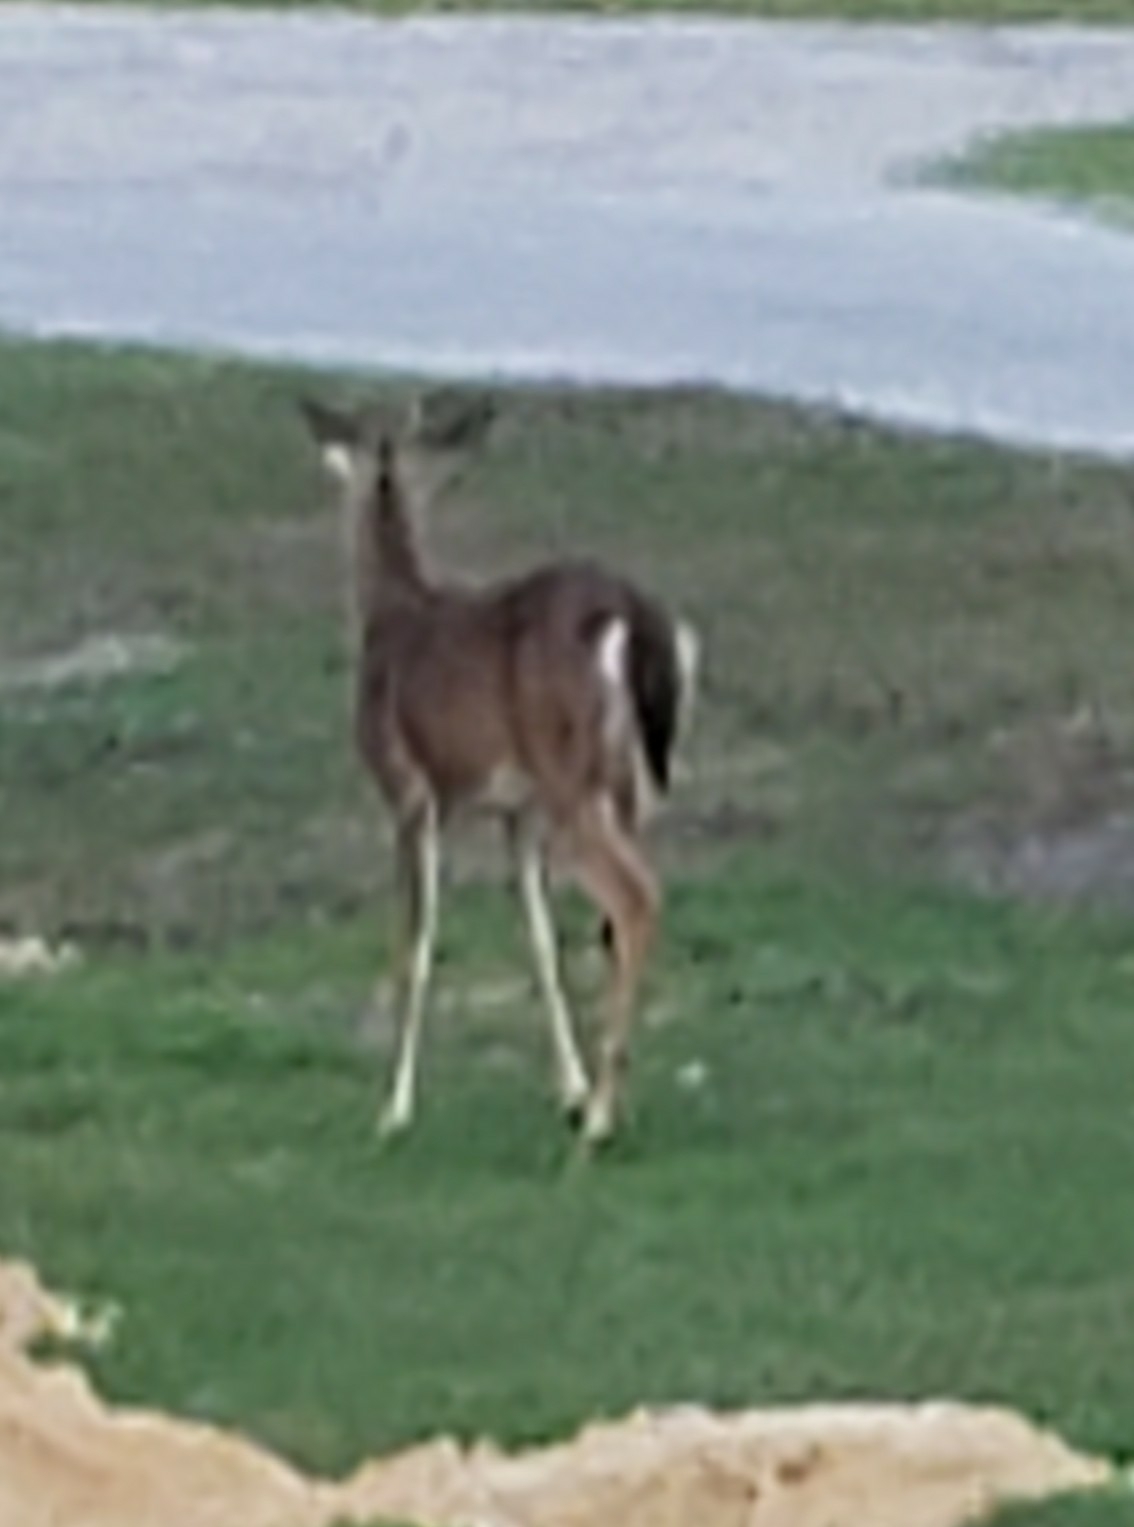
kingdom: Animalia
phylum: Chordata
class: Mammalia
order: Artiodactyla
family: Cervidae
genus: Odocoileus
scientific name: Odocoileus virginianus
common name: White-tailed deer
